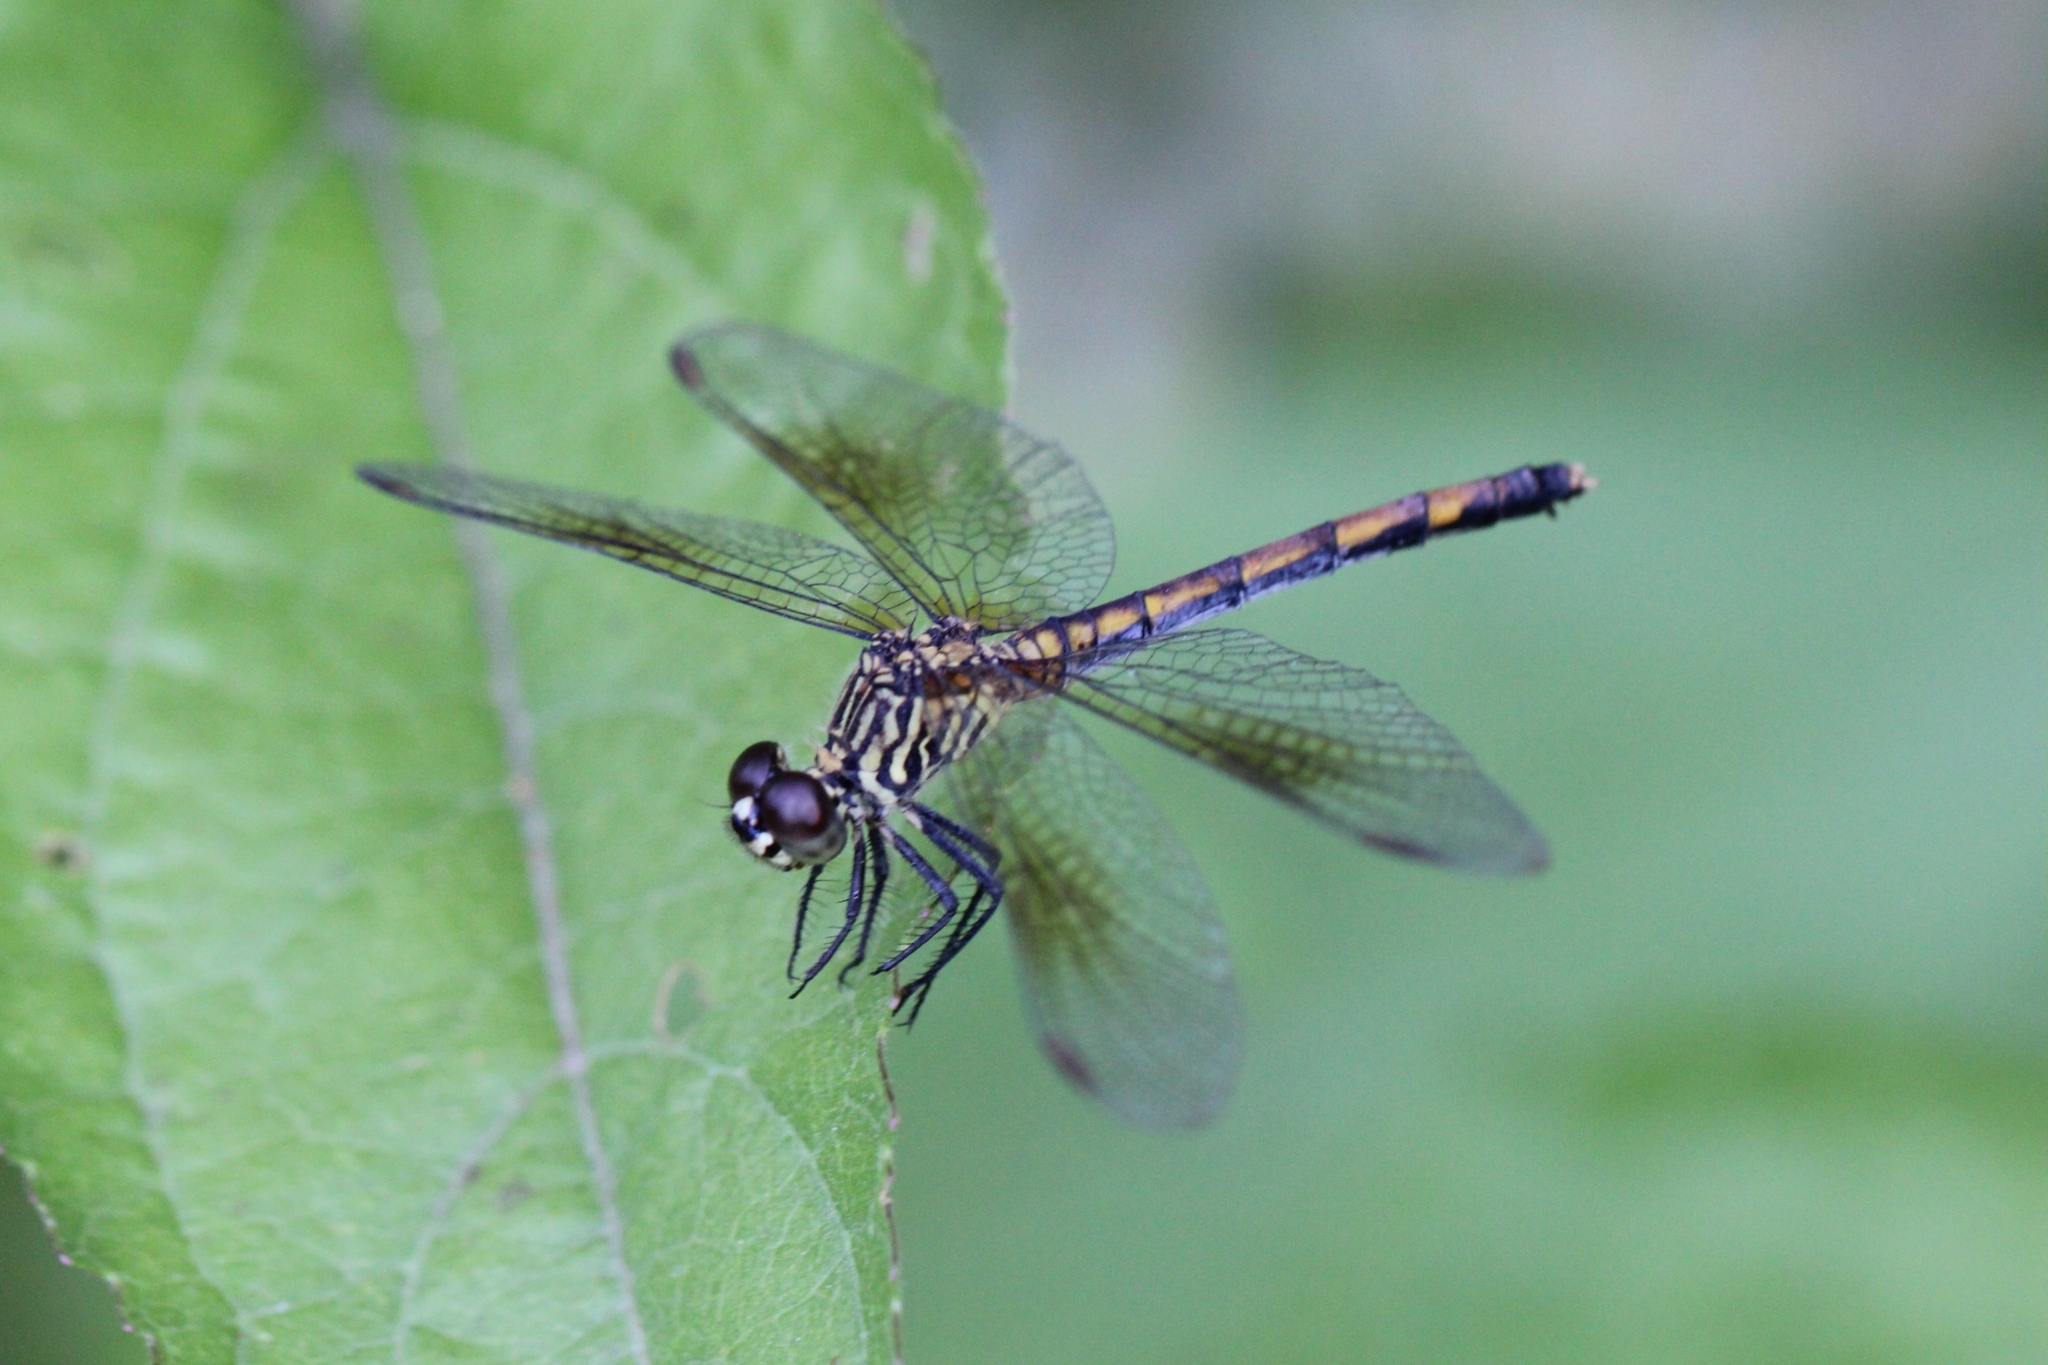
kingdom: Animalia
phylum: Arthropoda
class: Insecta
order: Odonata
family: Libellulidae
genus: Erythrodiplax
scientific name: Erythrodiplax berenice
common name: Seaside dragonlet
